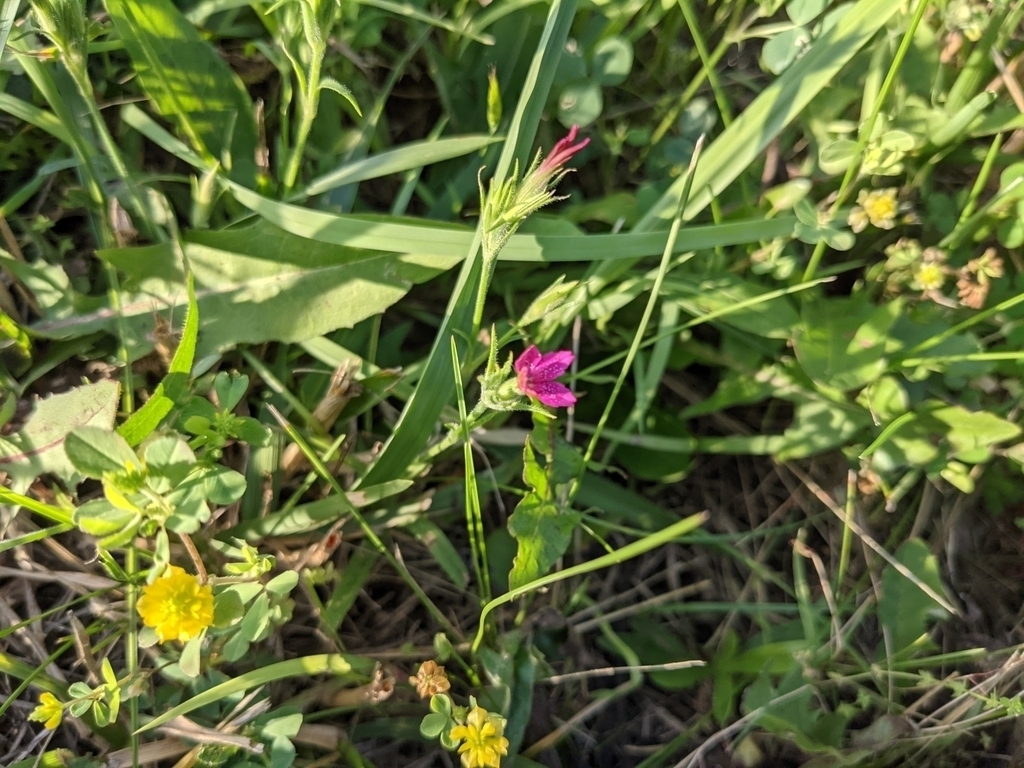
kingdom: Plantae
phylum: Tracheophyta
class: Magnoliopsida
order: Caryophyllales
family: Caryophyllaceae
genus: Dianthus
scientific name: Dianthus armeria
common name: Deptford pink
